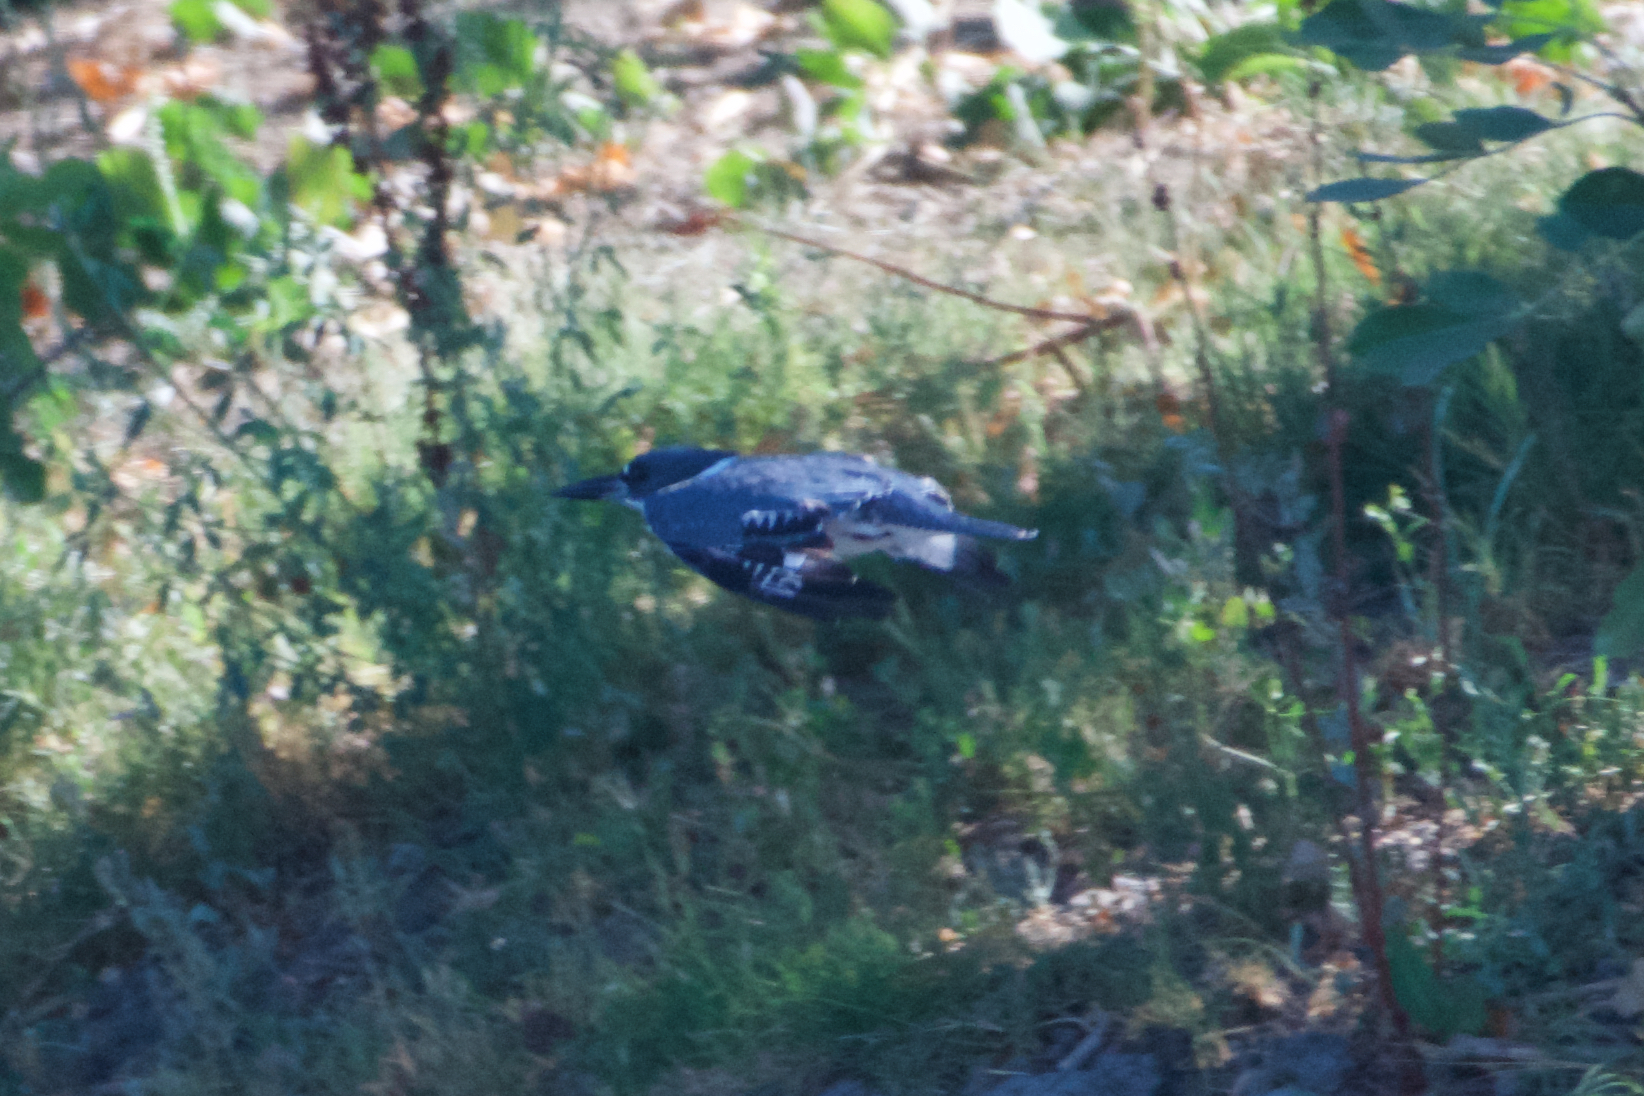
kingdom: Animalia
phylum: Chordata
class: Aves
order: Coraciiformes
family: Alcedinidae
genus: Megaceryle
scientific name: Megaceryle alcyon
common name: Belted kingfisher
